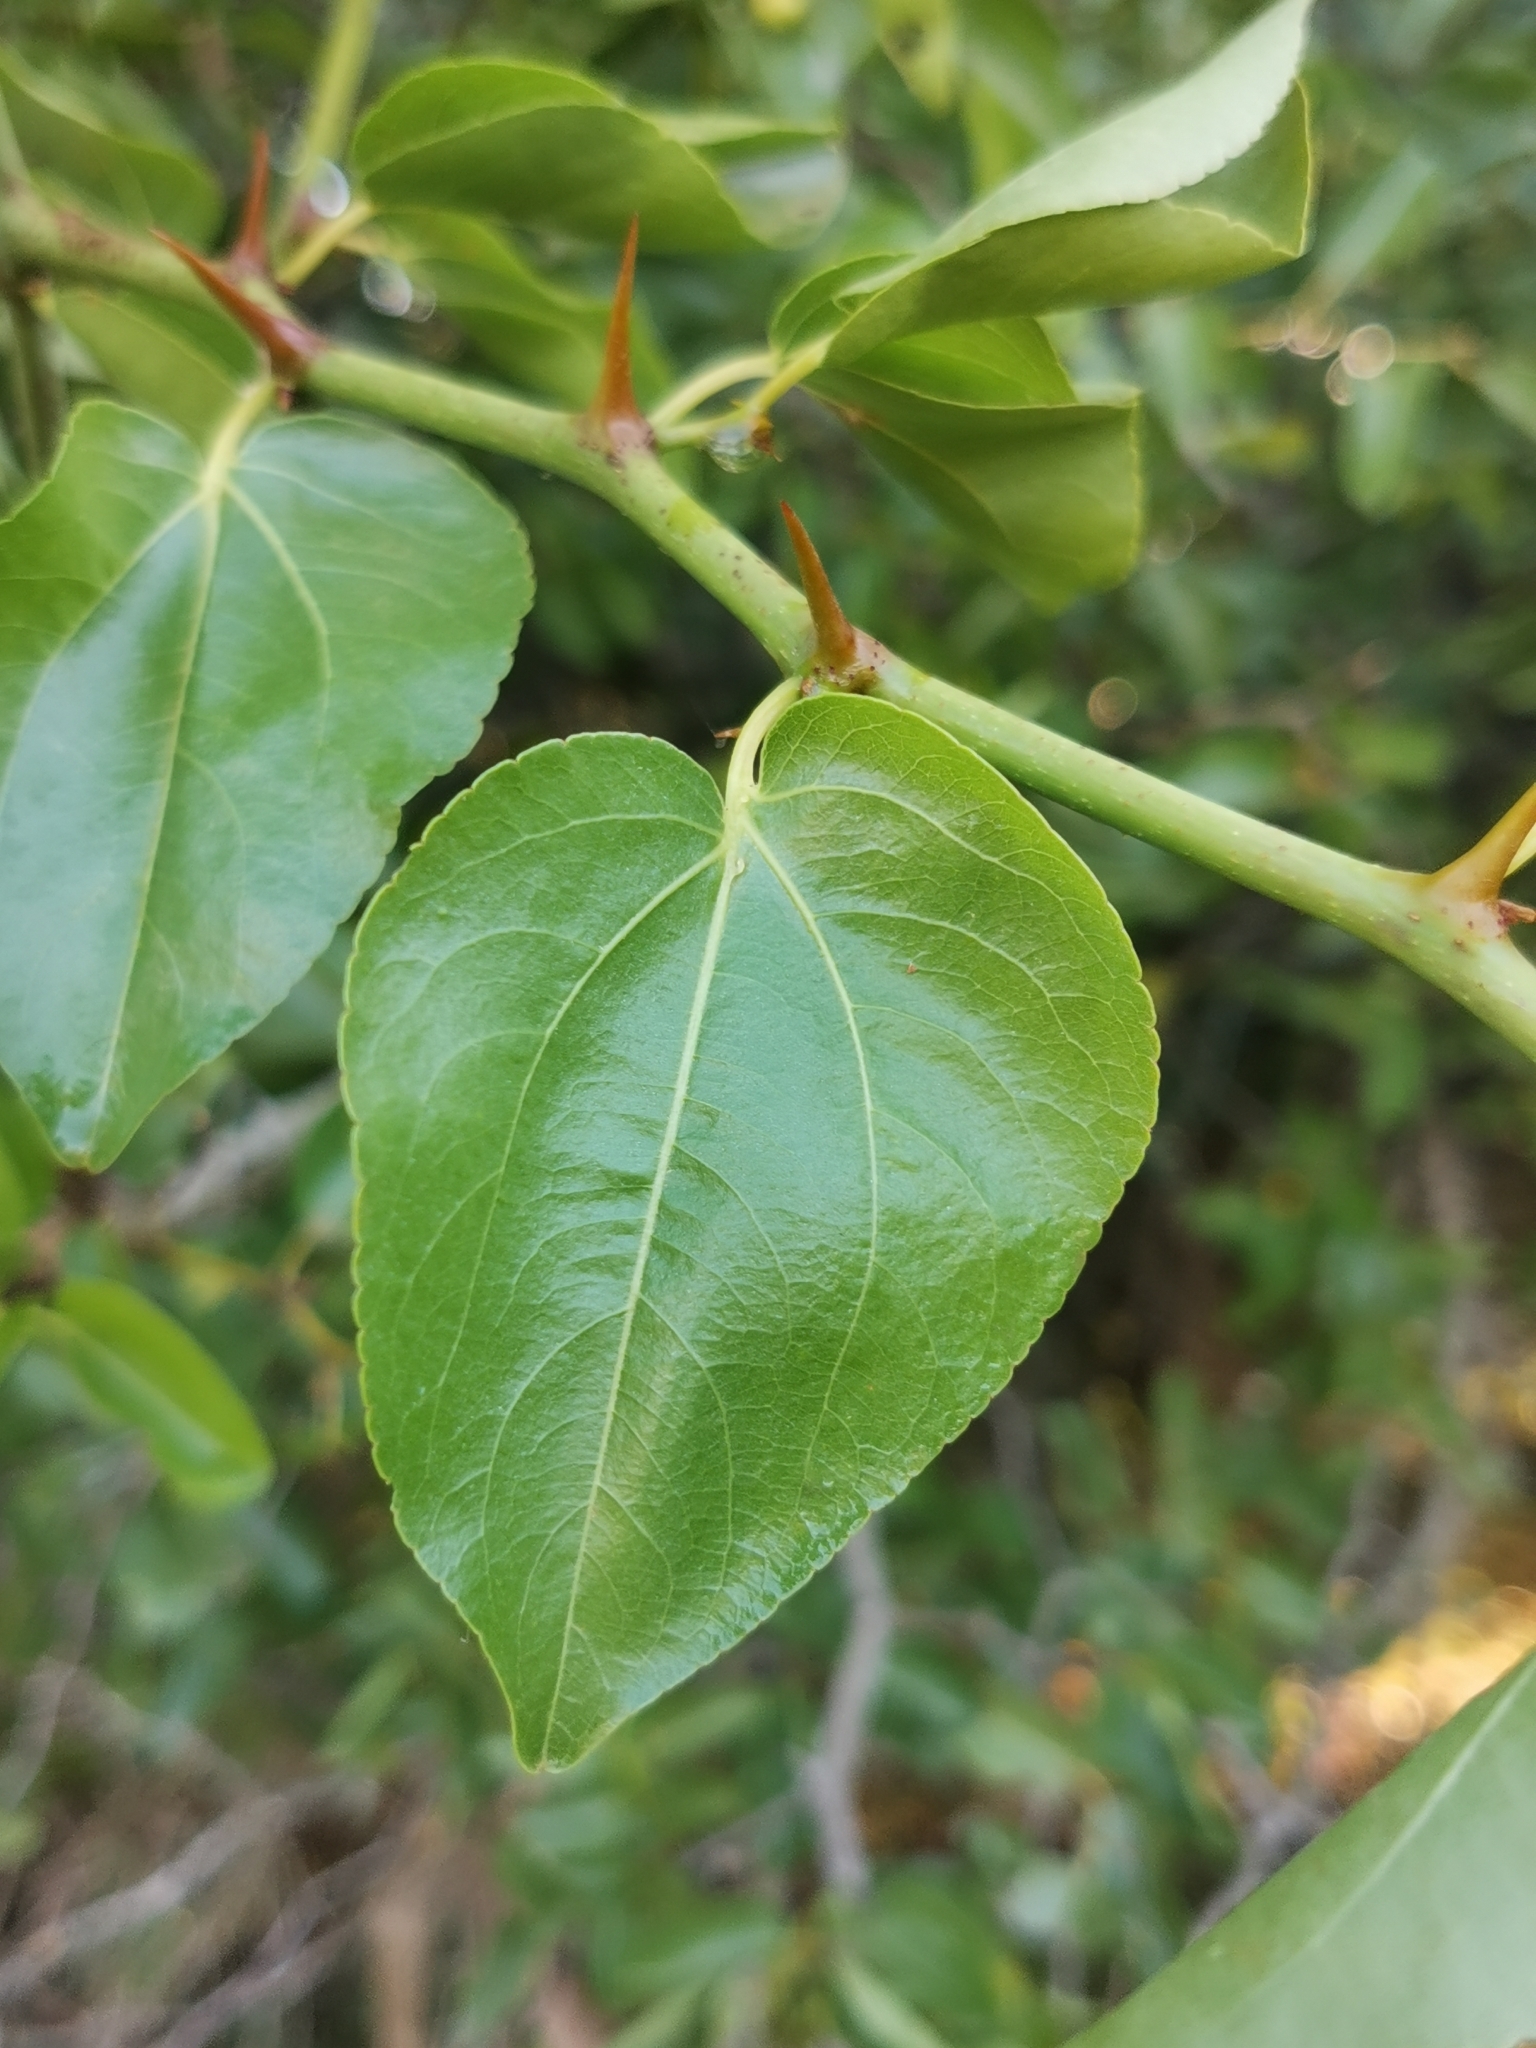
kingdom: Plantae
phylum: Tracheophyta
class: Magnoliopsida
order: Rosales
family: Rhamnaceae
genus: Ziziphus
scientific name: Ziziphus mucronata
